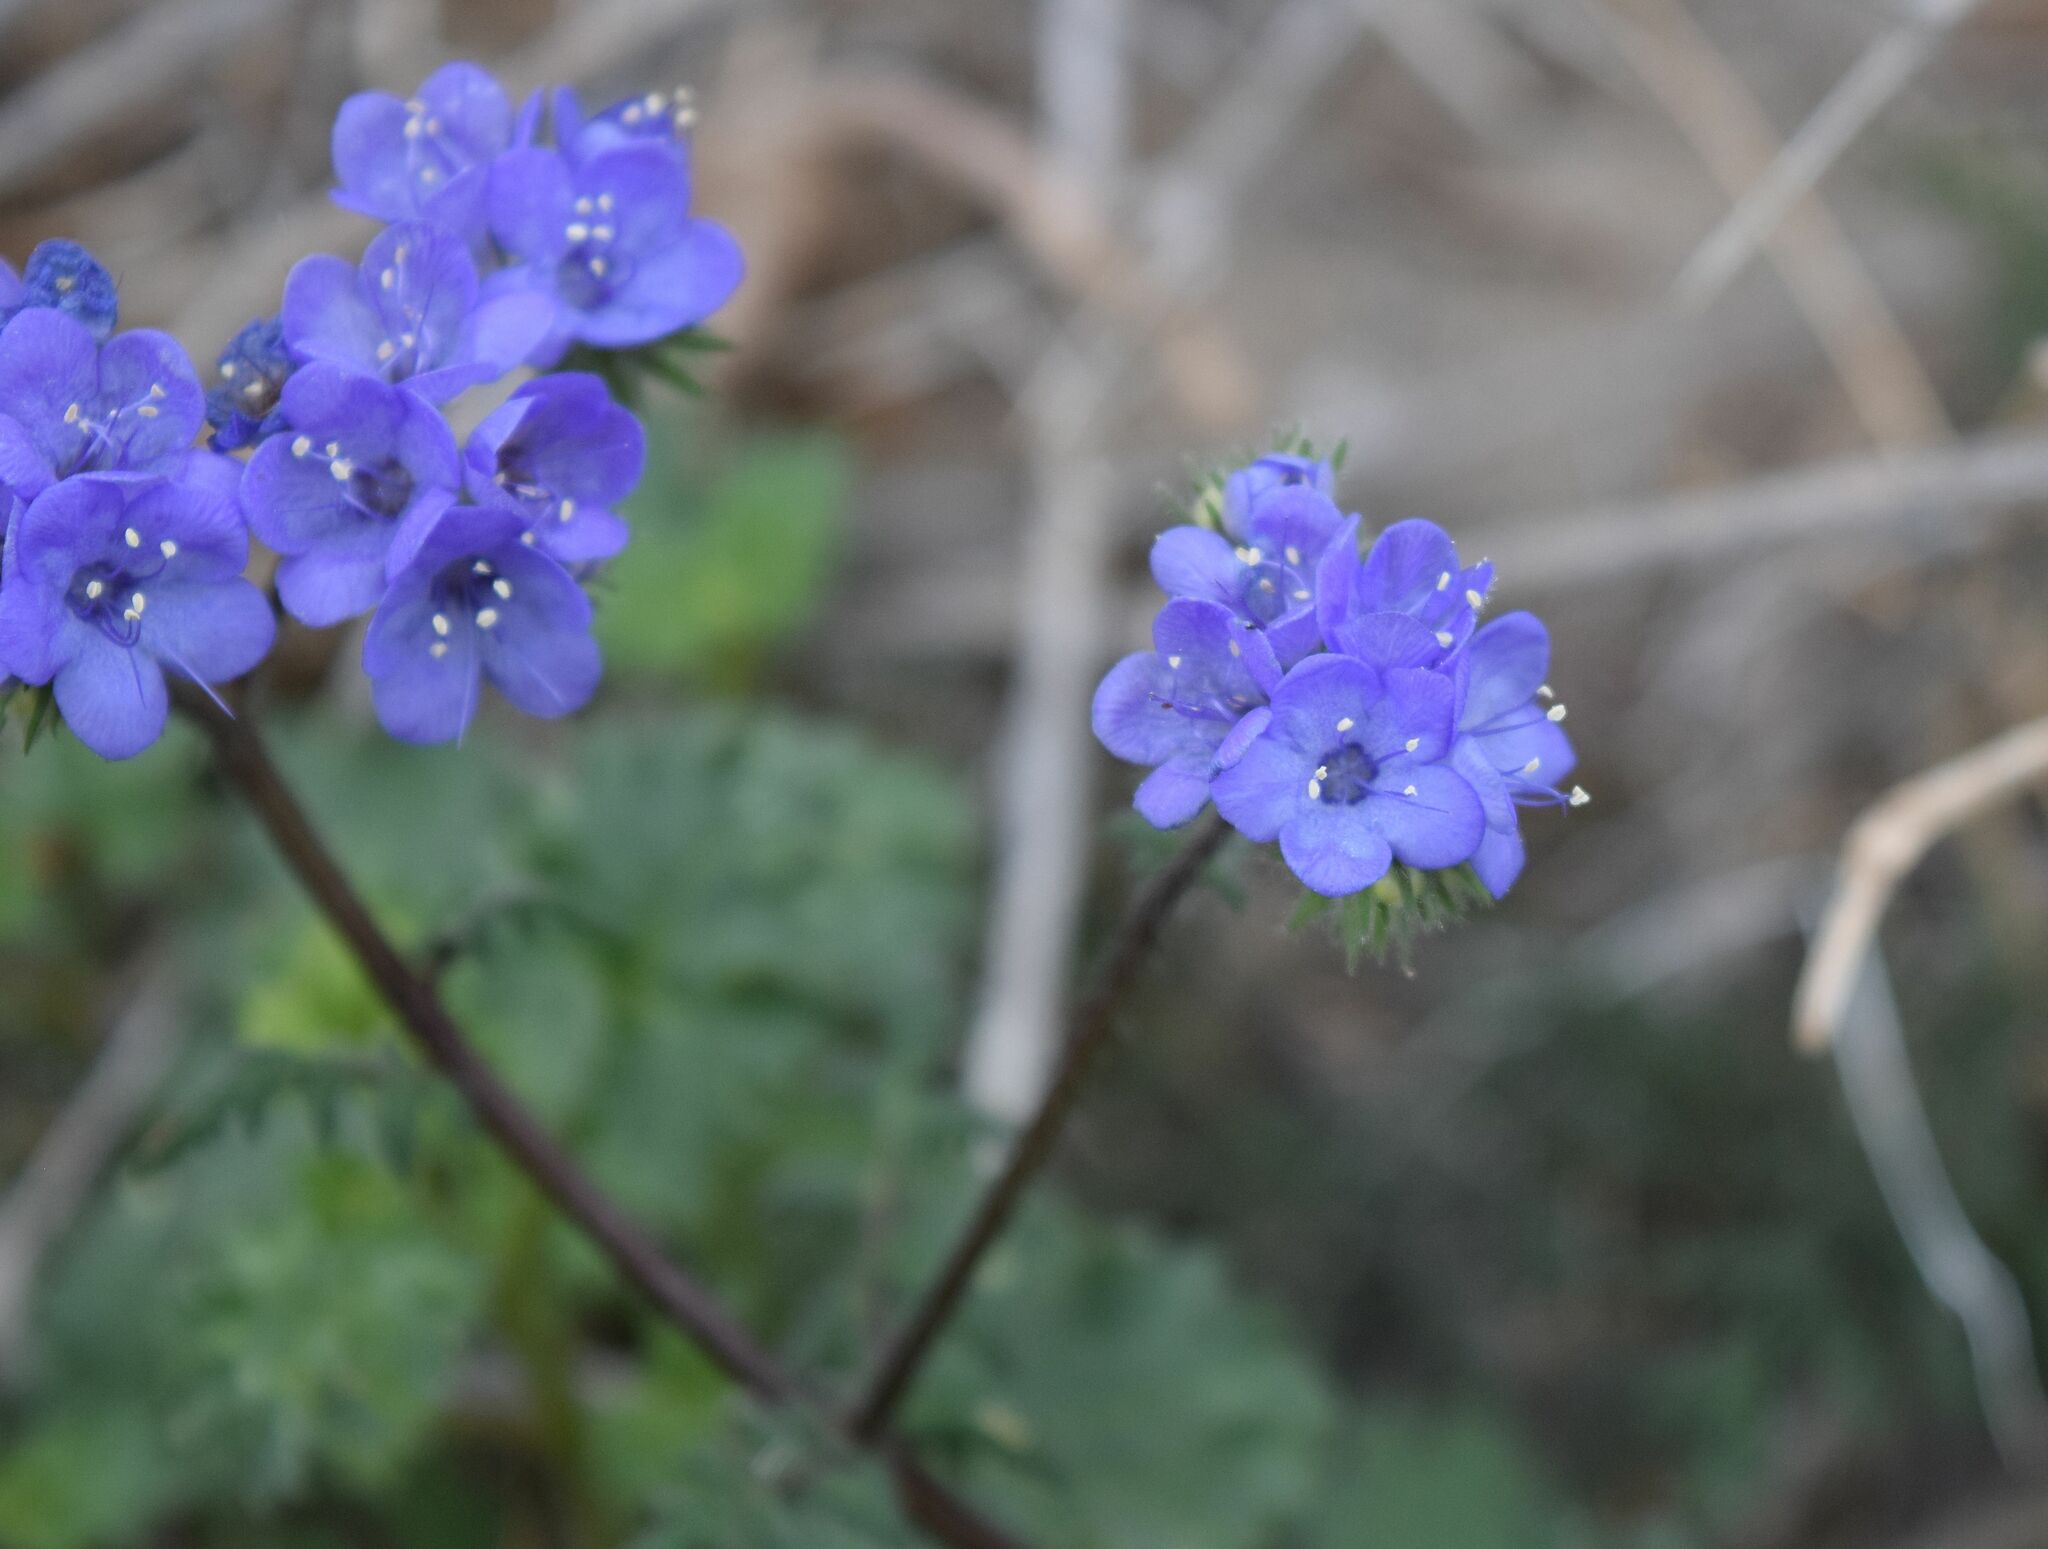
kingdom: Plantae
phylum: Tracheophyta
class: Magnoliopsida
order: Boraginales
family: Hydrophyllaceae
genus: Phacelia
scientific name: Phacelia distans
